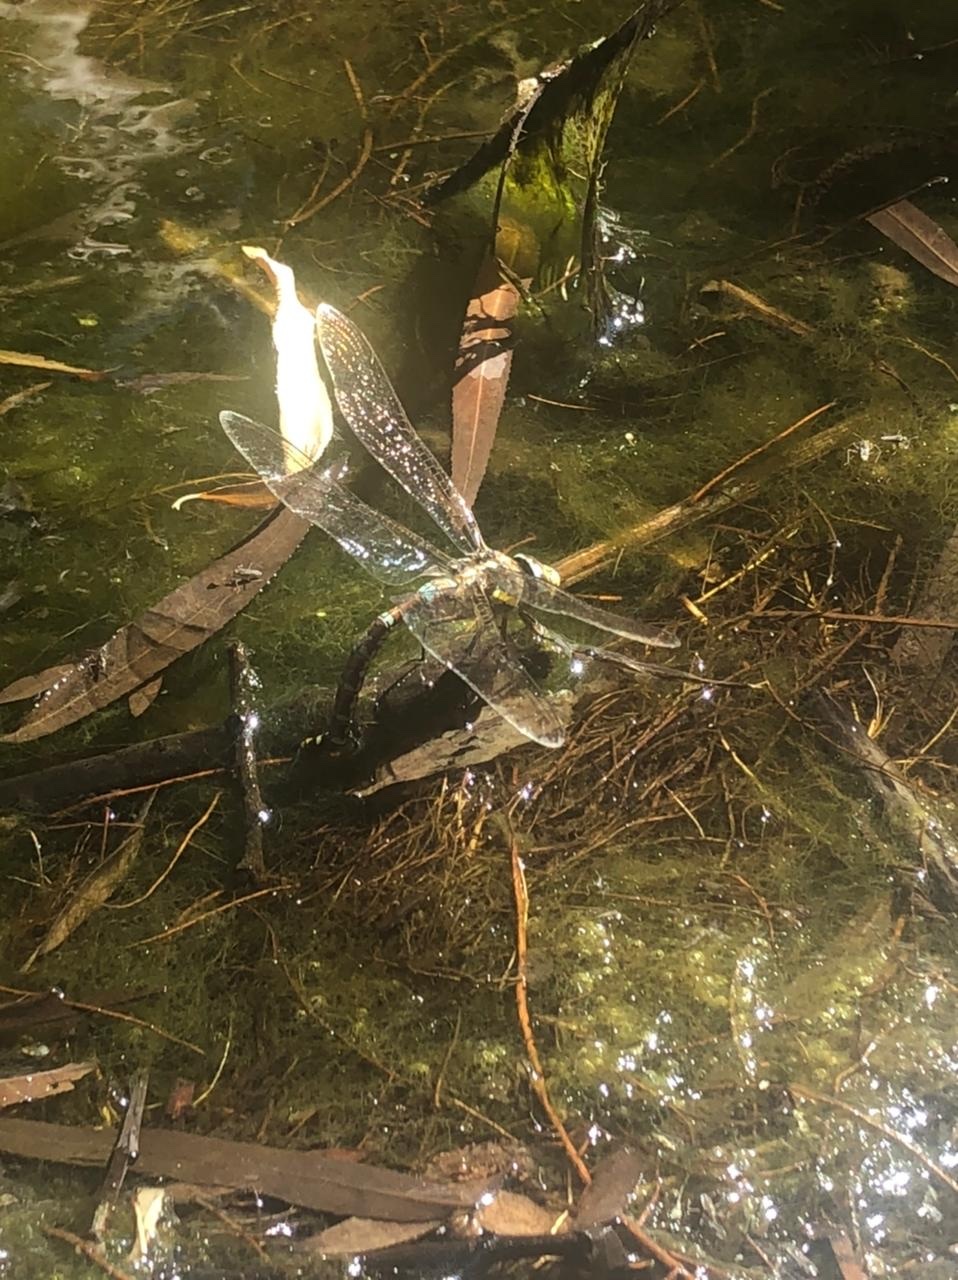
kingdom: Animalia
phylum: Arthropoda
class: Insecta
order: Odonata
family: Aeshnidae
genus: Rhionaeschna
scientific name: Rhionaeschna absoluta
